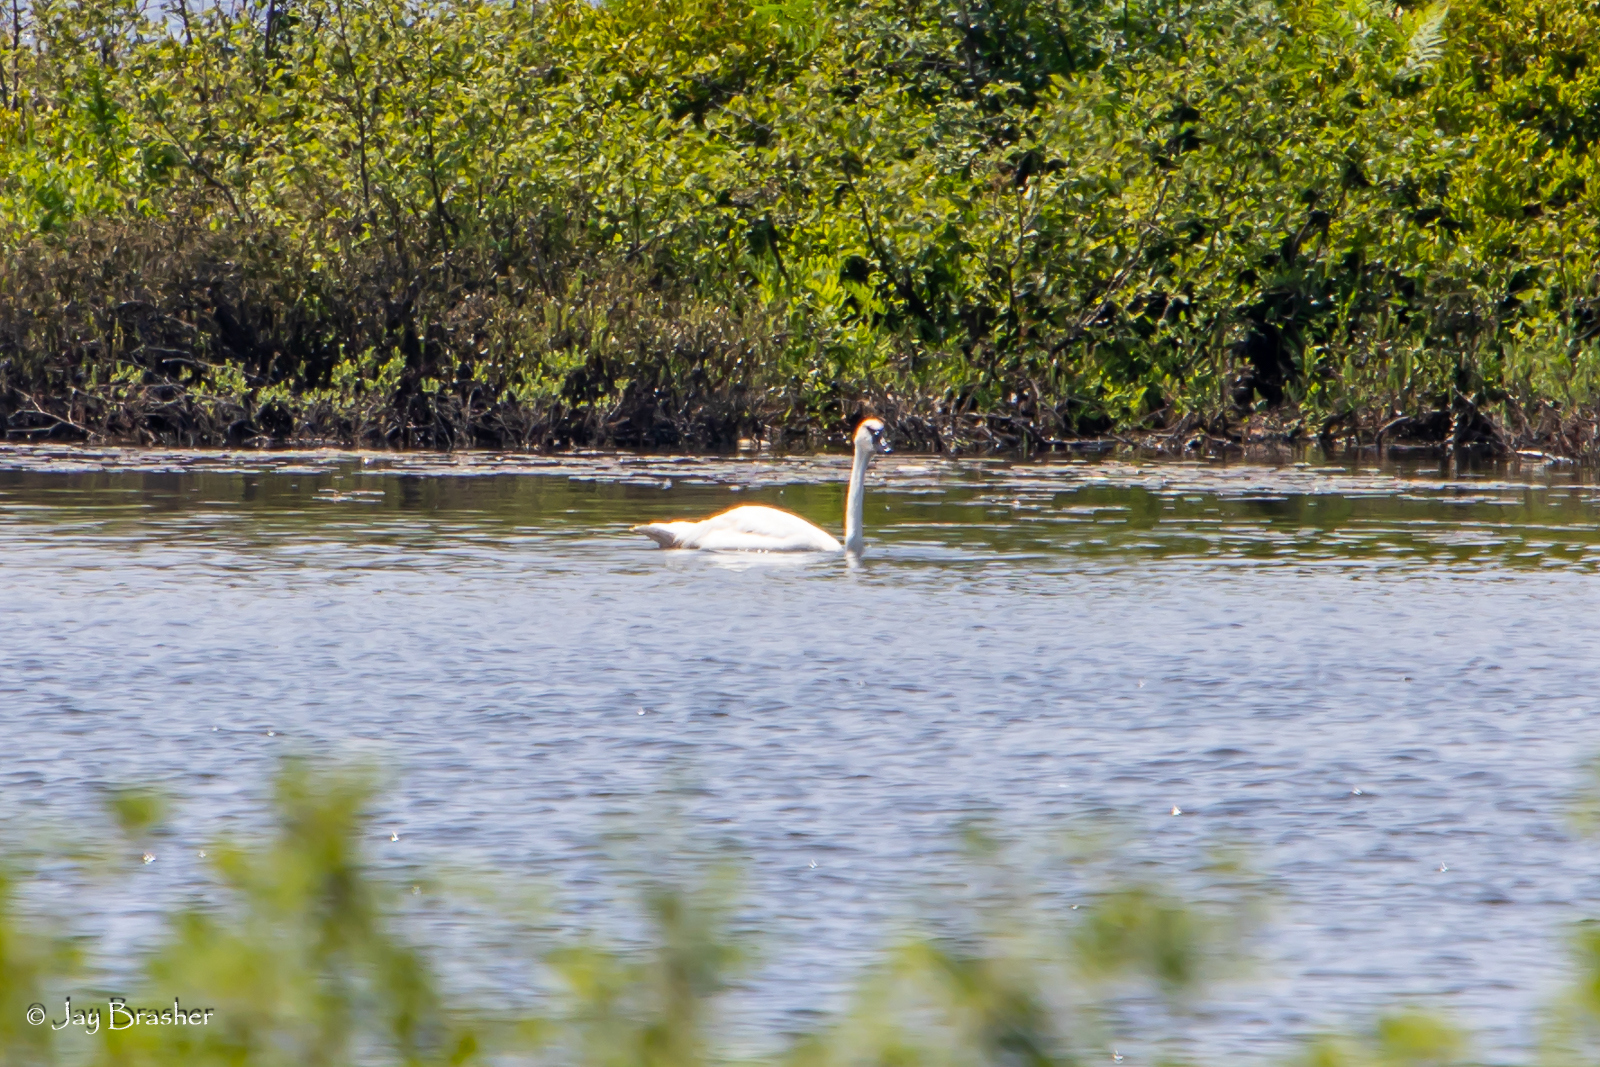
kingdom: Animalia
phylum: Chordata
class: Aves
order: Anseriformes
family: Anatidae
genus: Cygnus
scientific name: Cygnus buccinator
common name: Trumpeter swan
